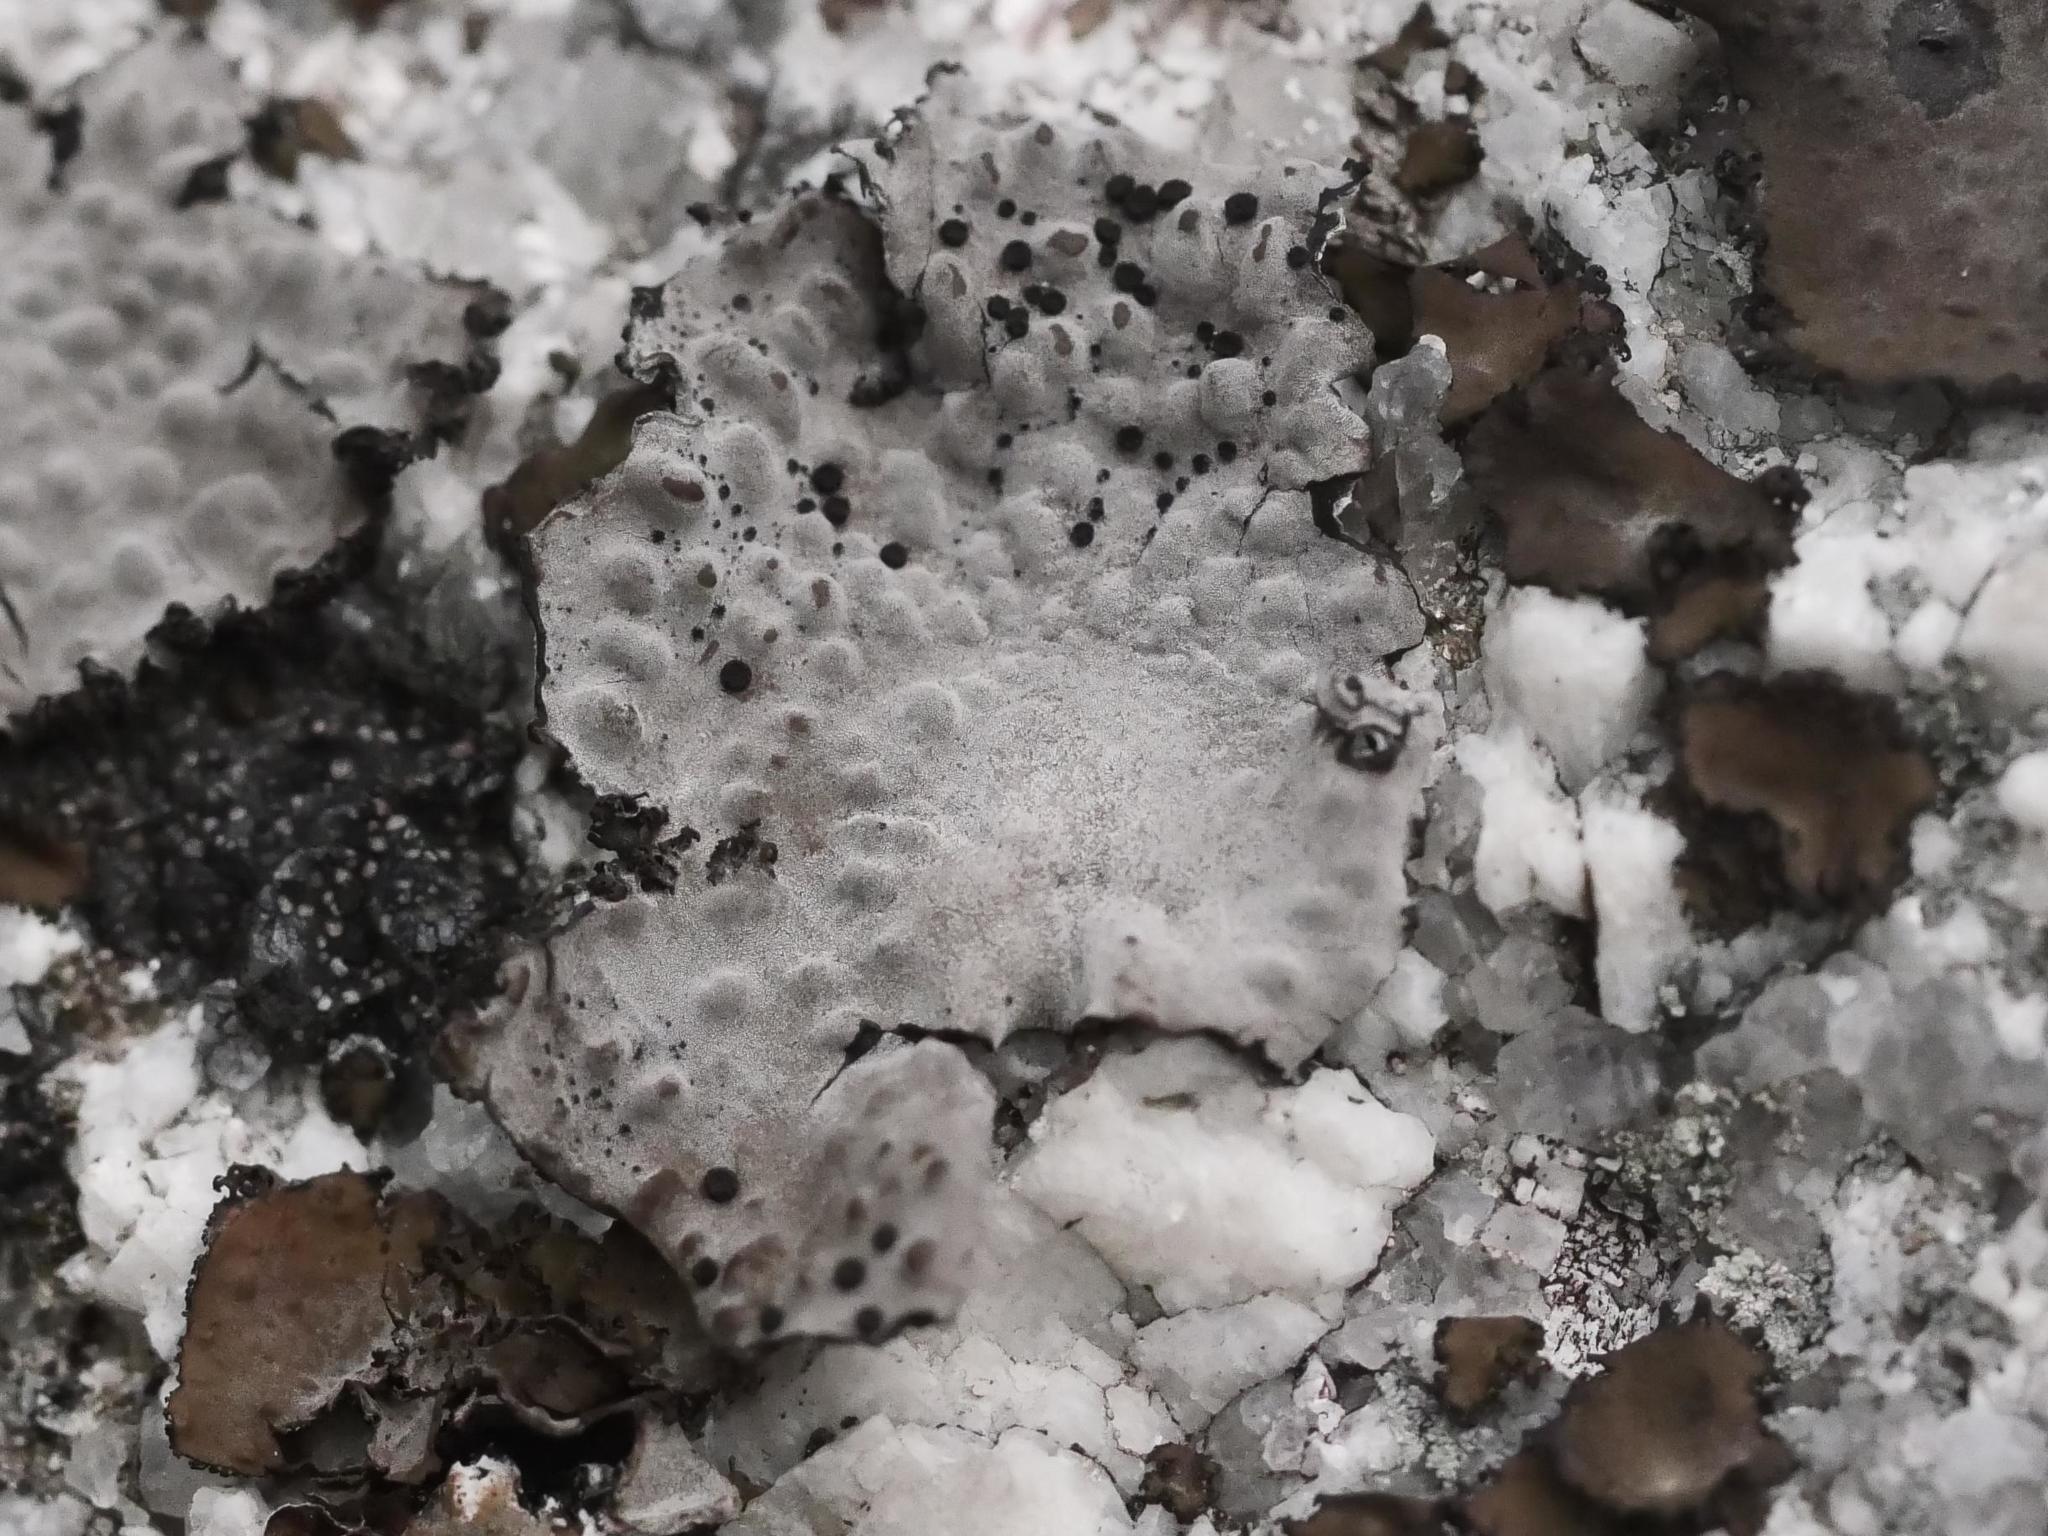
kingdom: Fungi
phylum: Ascomycota
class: Lecanoromycetes
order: Umbilicariales
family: Umbilicariaceae
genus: Lasallia
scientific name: Lasallia papulosa
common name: Common toadskin lichen
